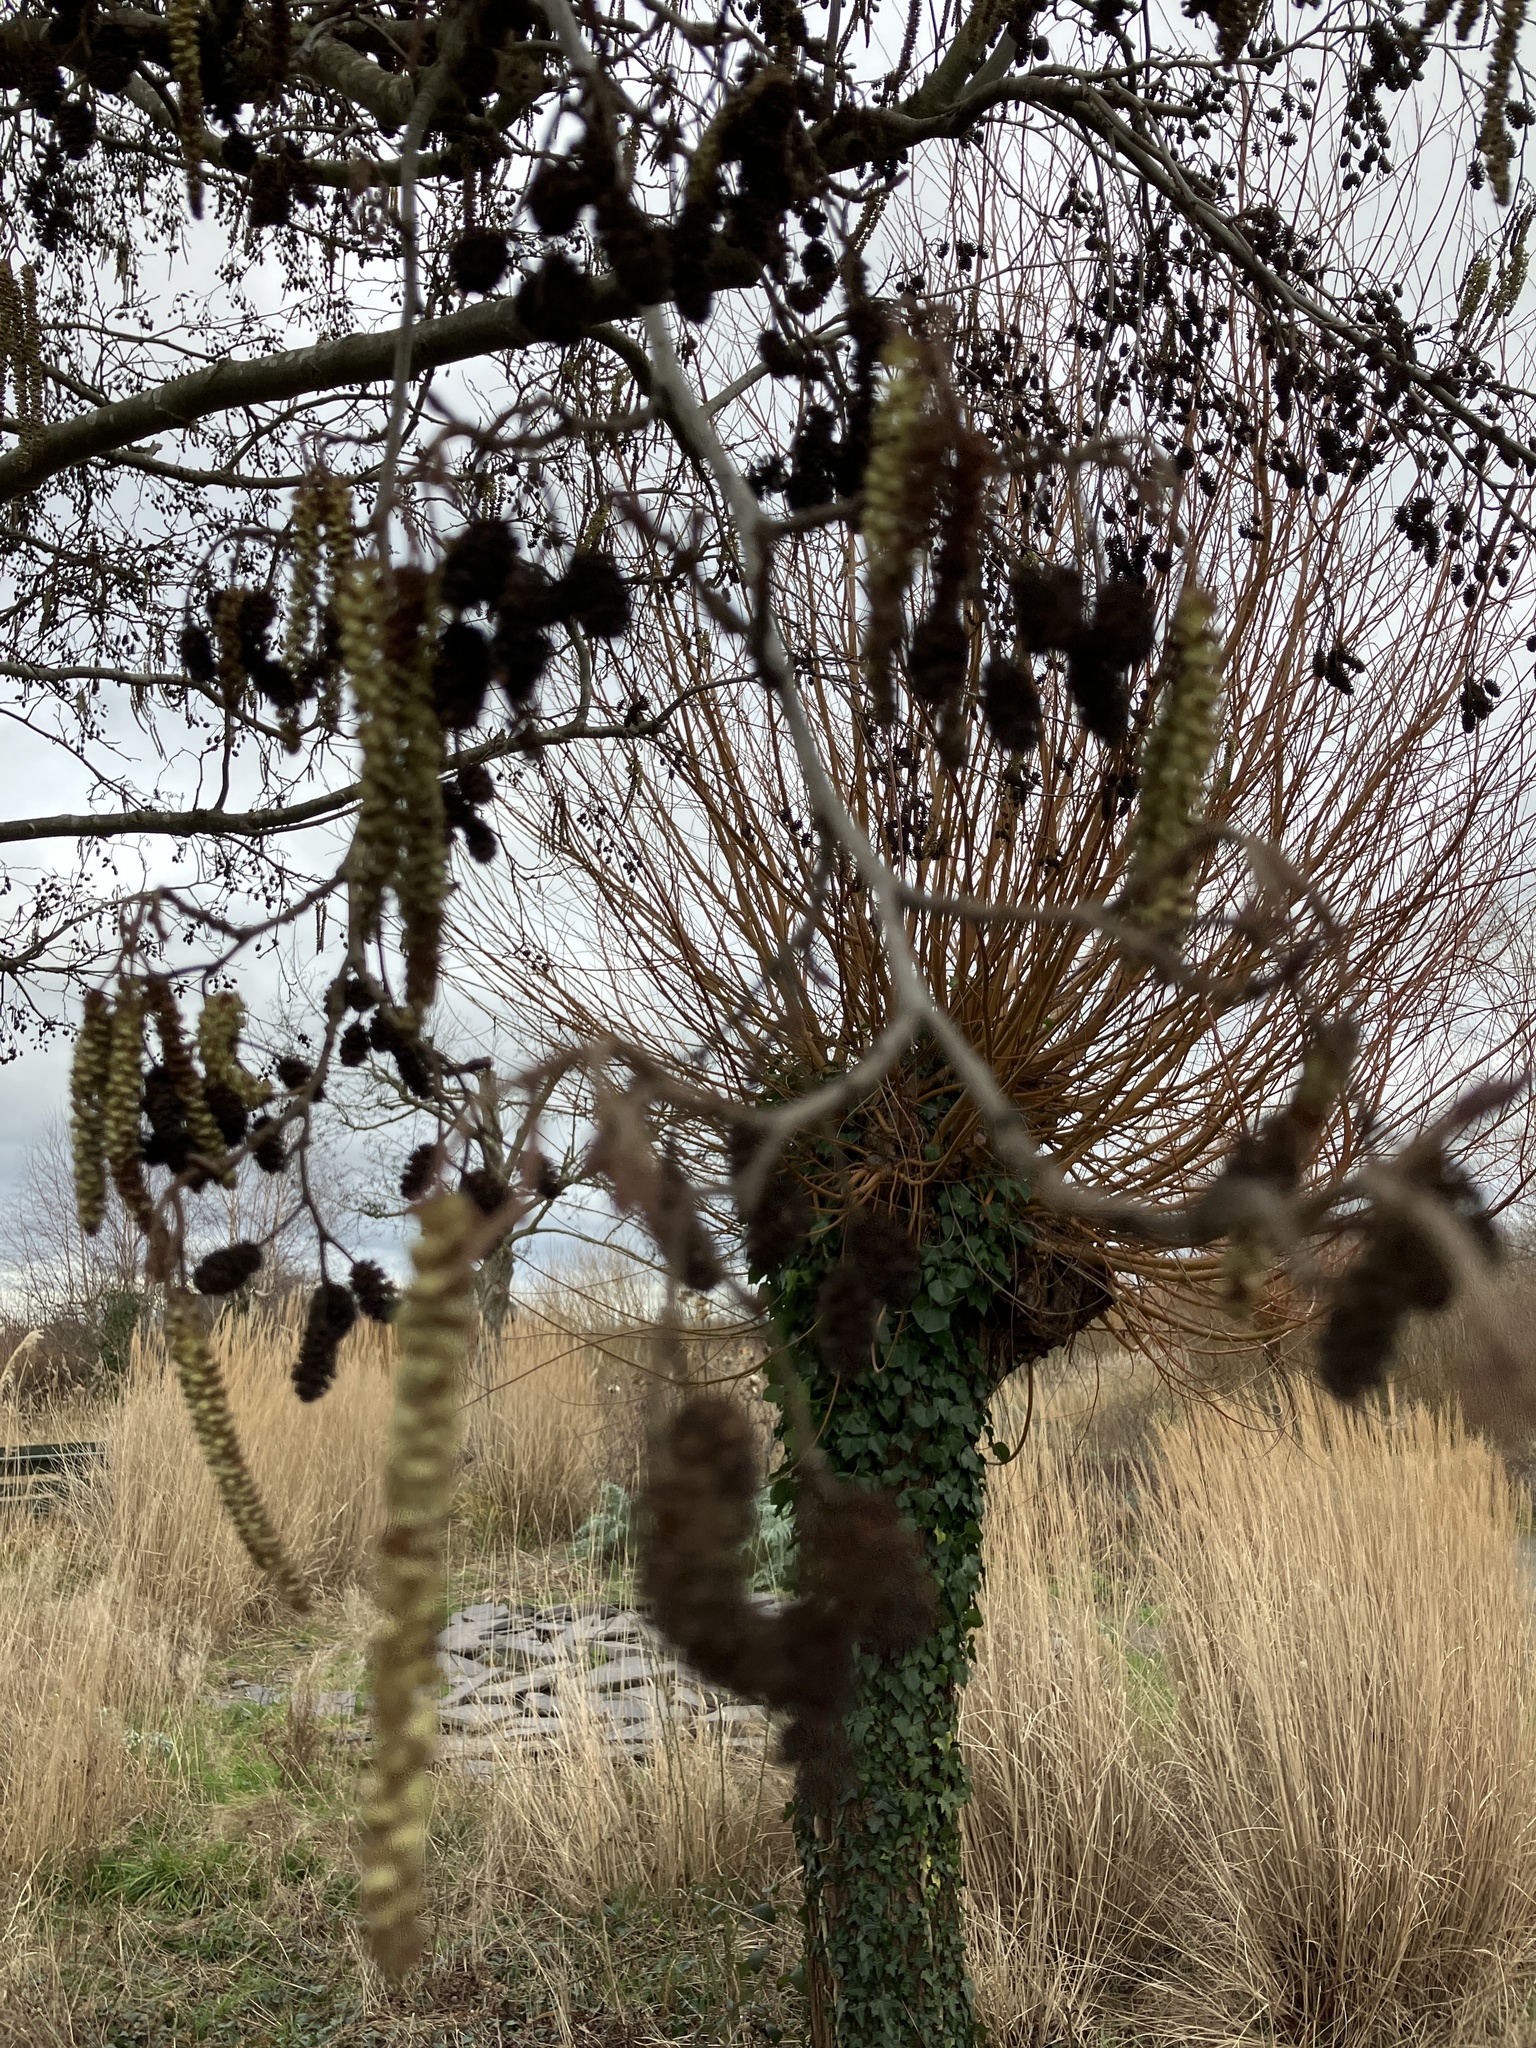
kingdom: Plantae
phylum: Tracheophyta
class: Magnoliopsida
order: Fagales
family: Betulaceae
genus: Alnus
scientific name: Alnus glutinosa
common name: Black alder
